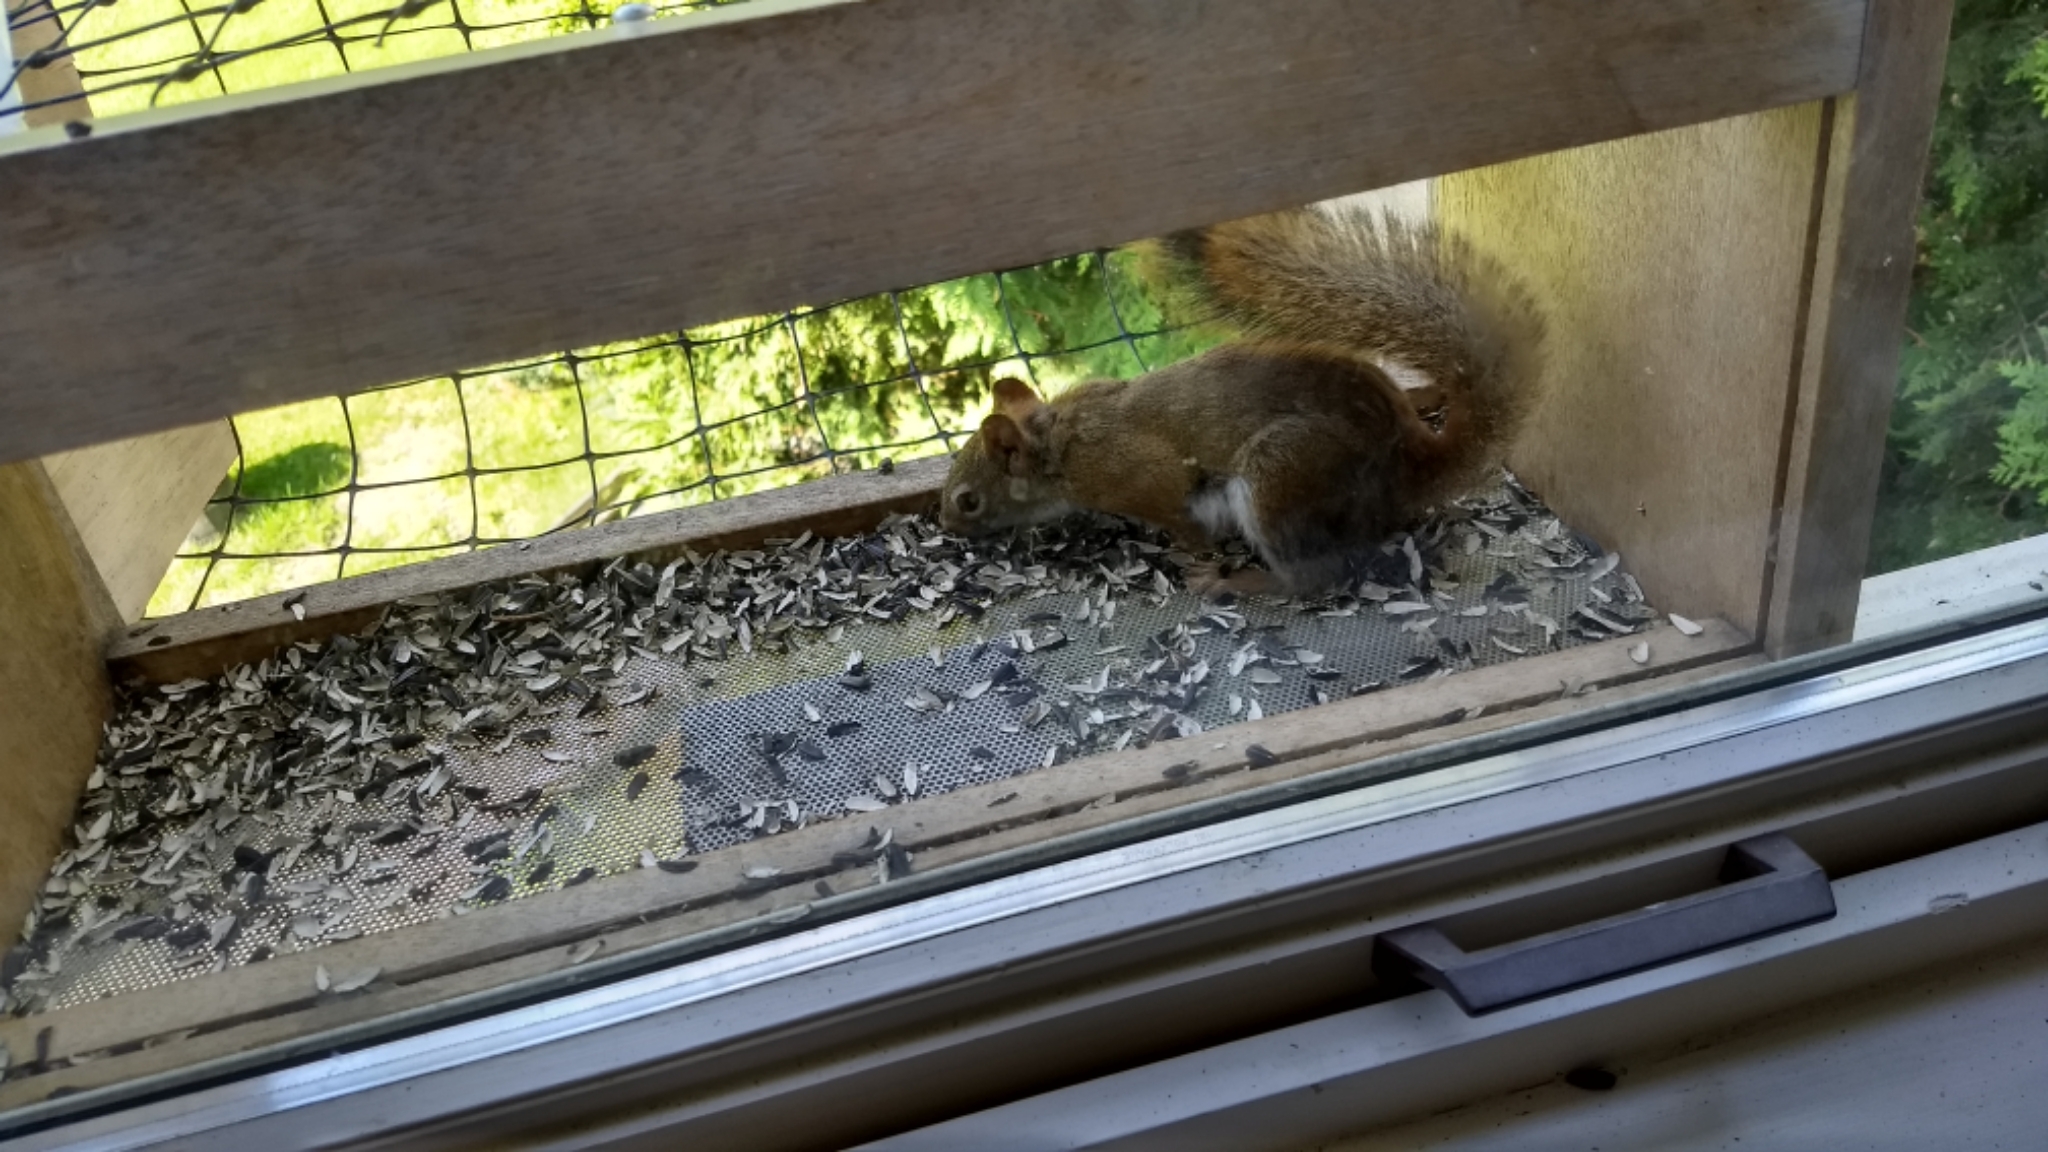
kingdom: Animalia
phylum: Chordata
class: Mammalia
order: Rodentia
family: Sciuridae
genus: Tamiasciurus
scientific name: Tamiasciurus hudsonicus
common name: Red squirrel
